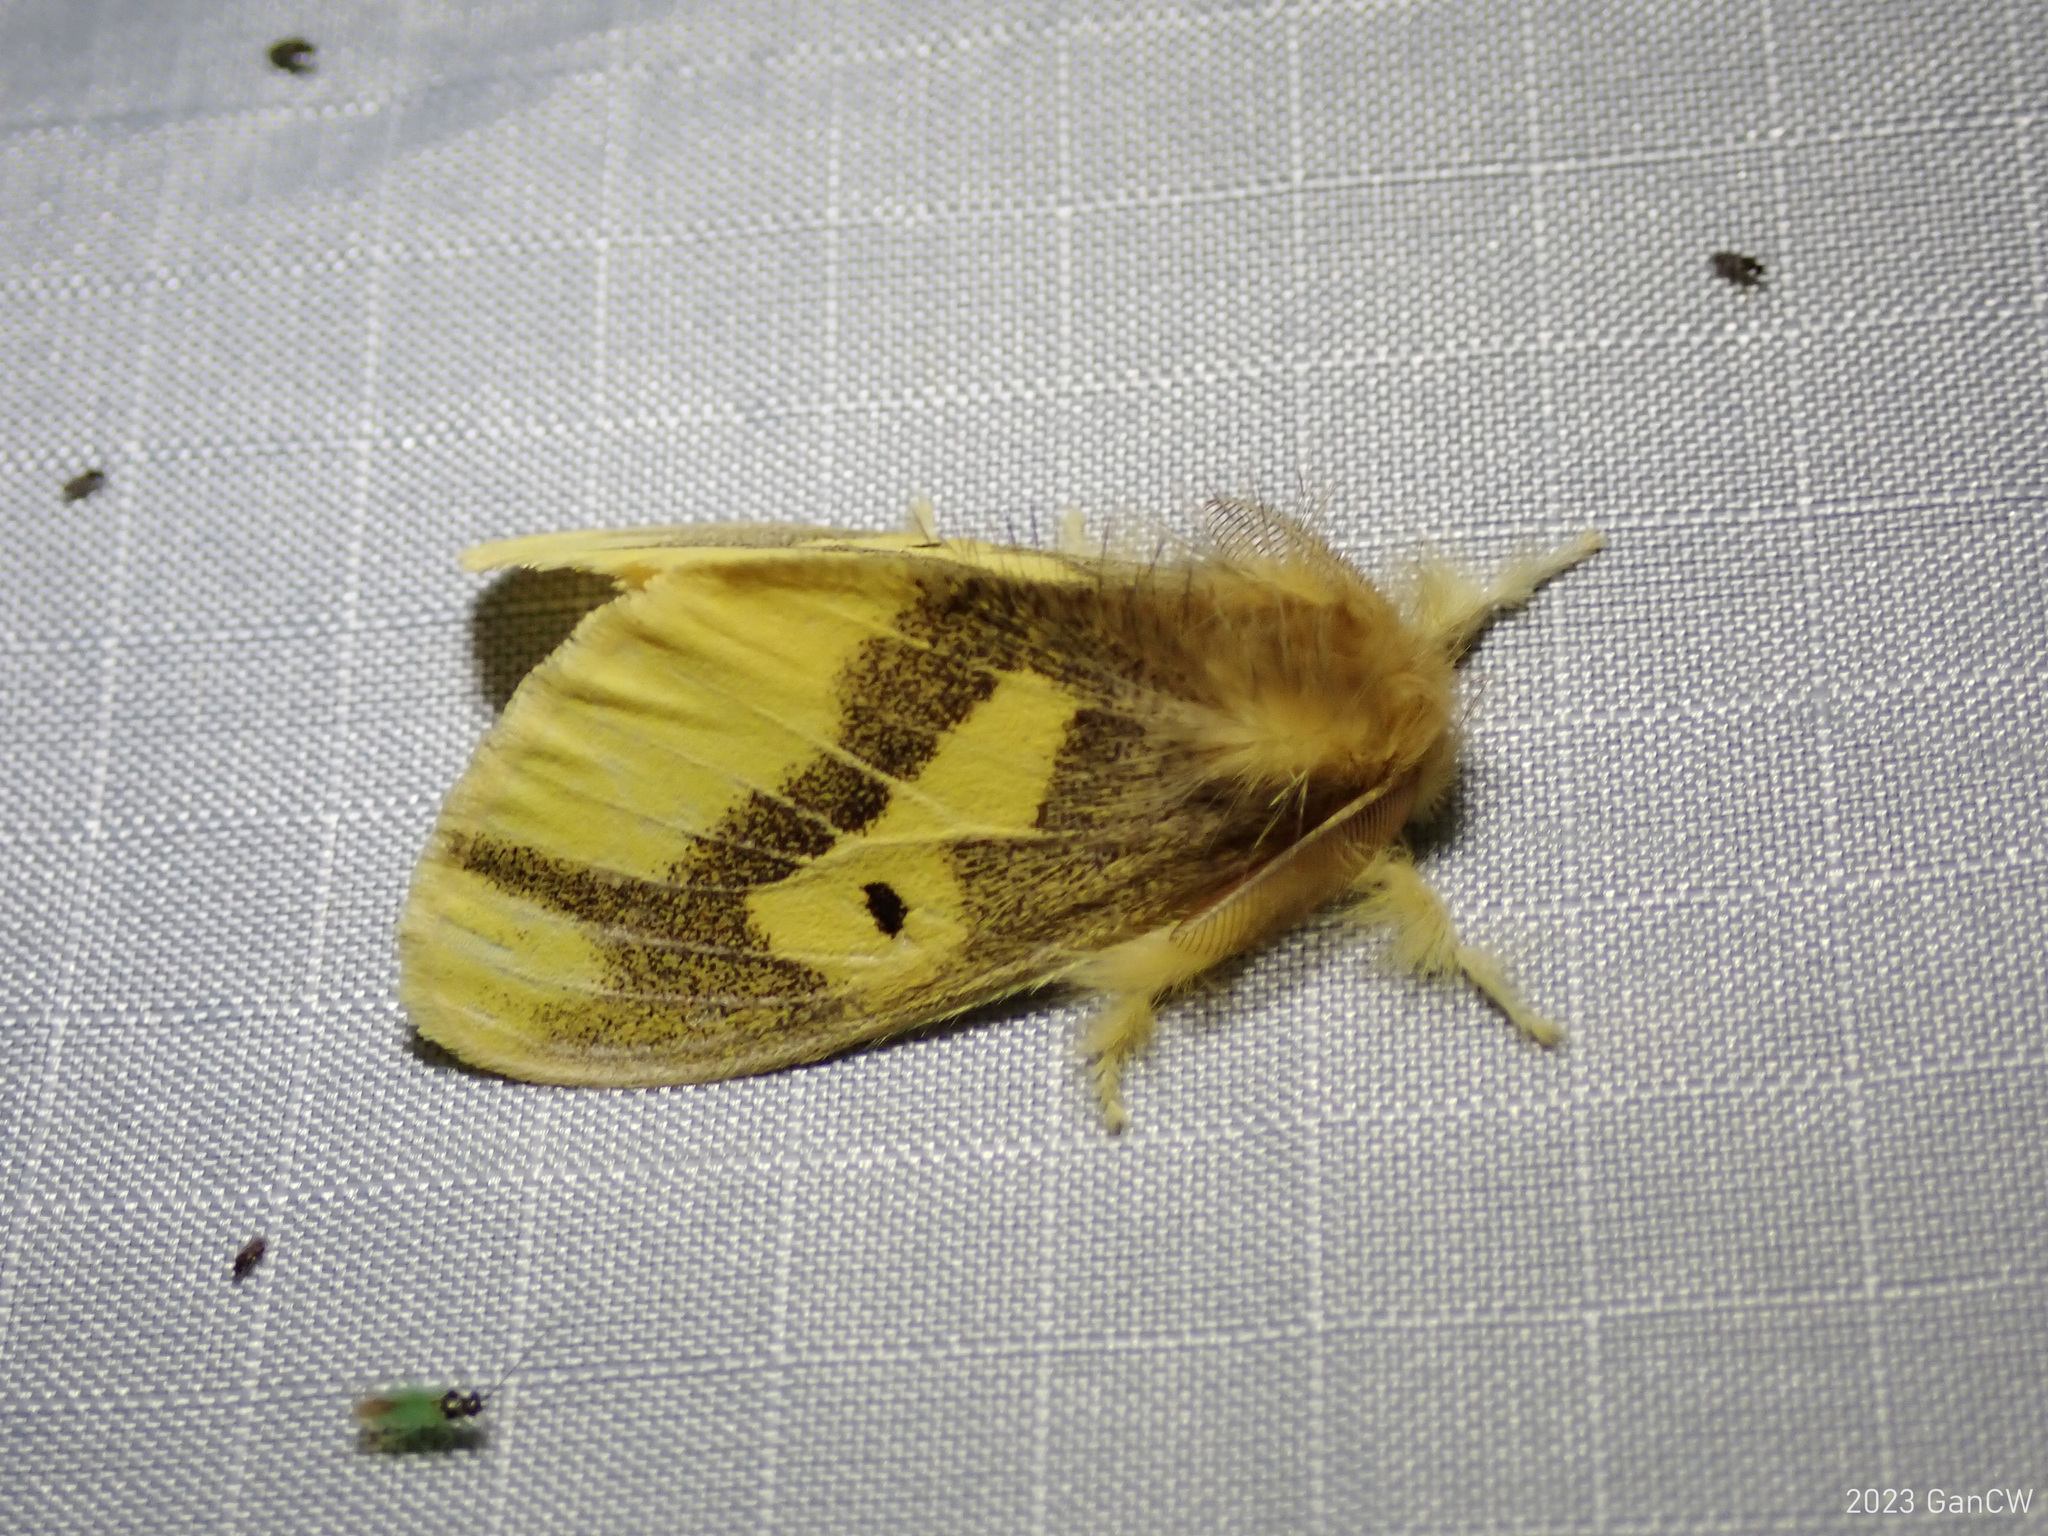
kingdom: Animalia
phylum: Arthropoda
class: Insecta
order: Lepidoptera
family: Erebidae
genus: Euproctis
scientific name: Euproctis madana
